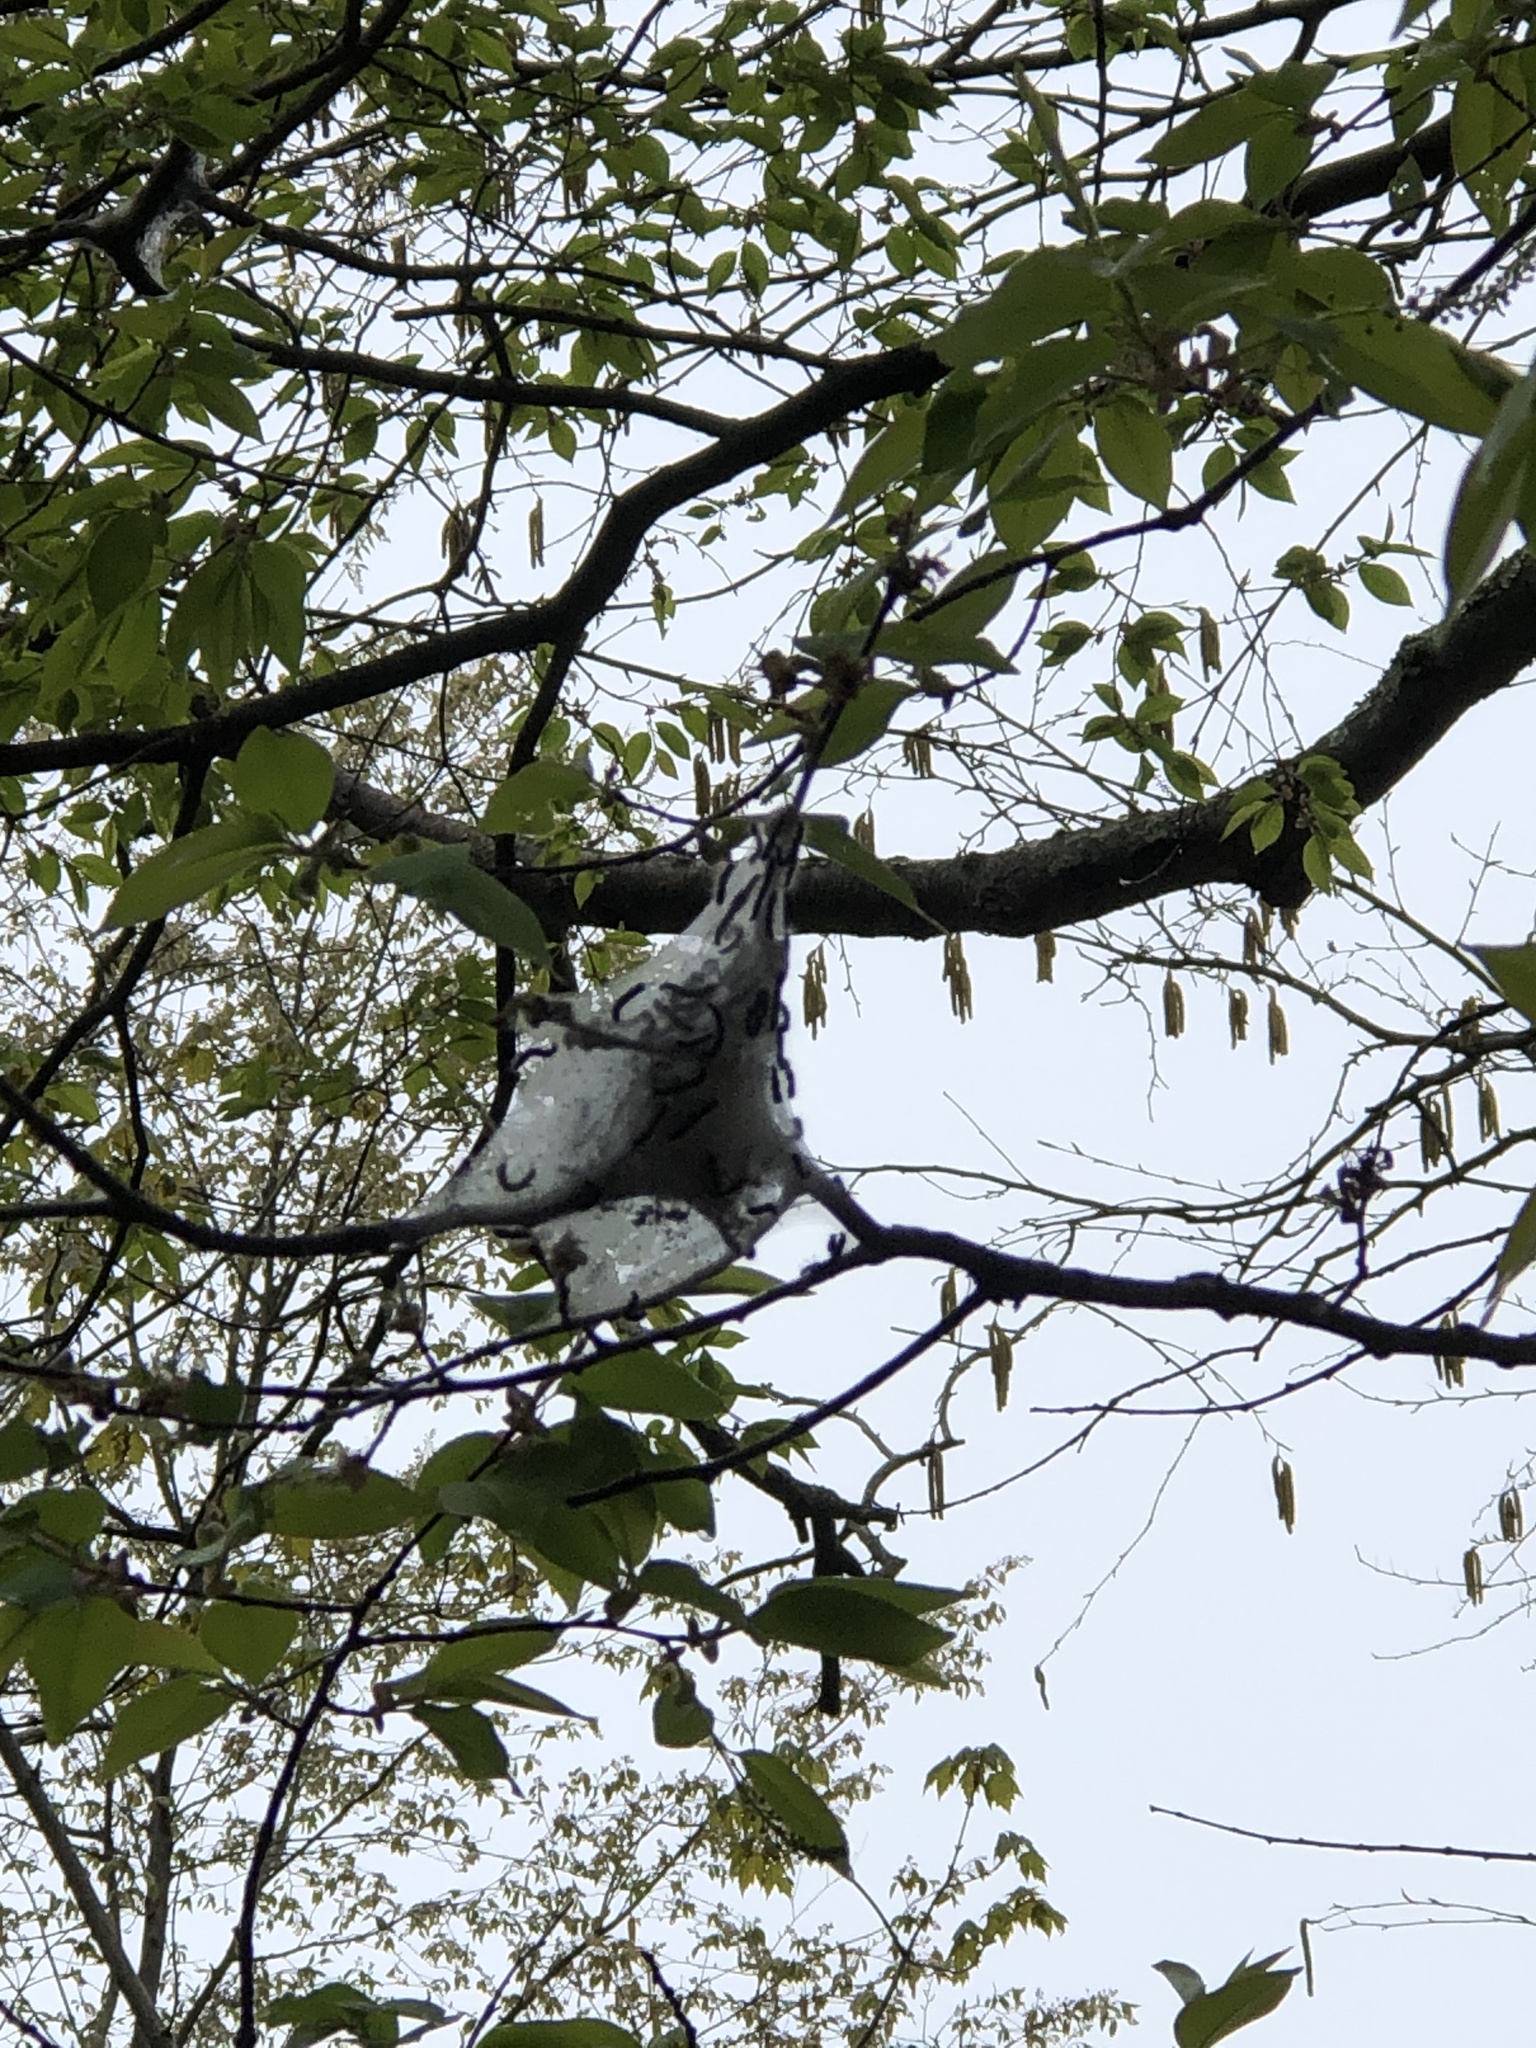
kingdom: Animalia
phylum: Arthropoda
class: Insecta
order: Lepidoptera
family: Lasiocampidae
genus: Malacosoma
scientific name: Malacosoma americana
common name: Eastern tent caterpillar moth
